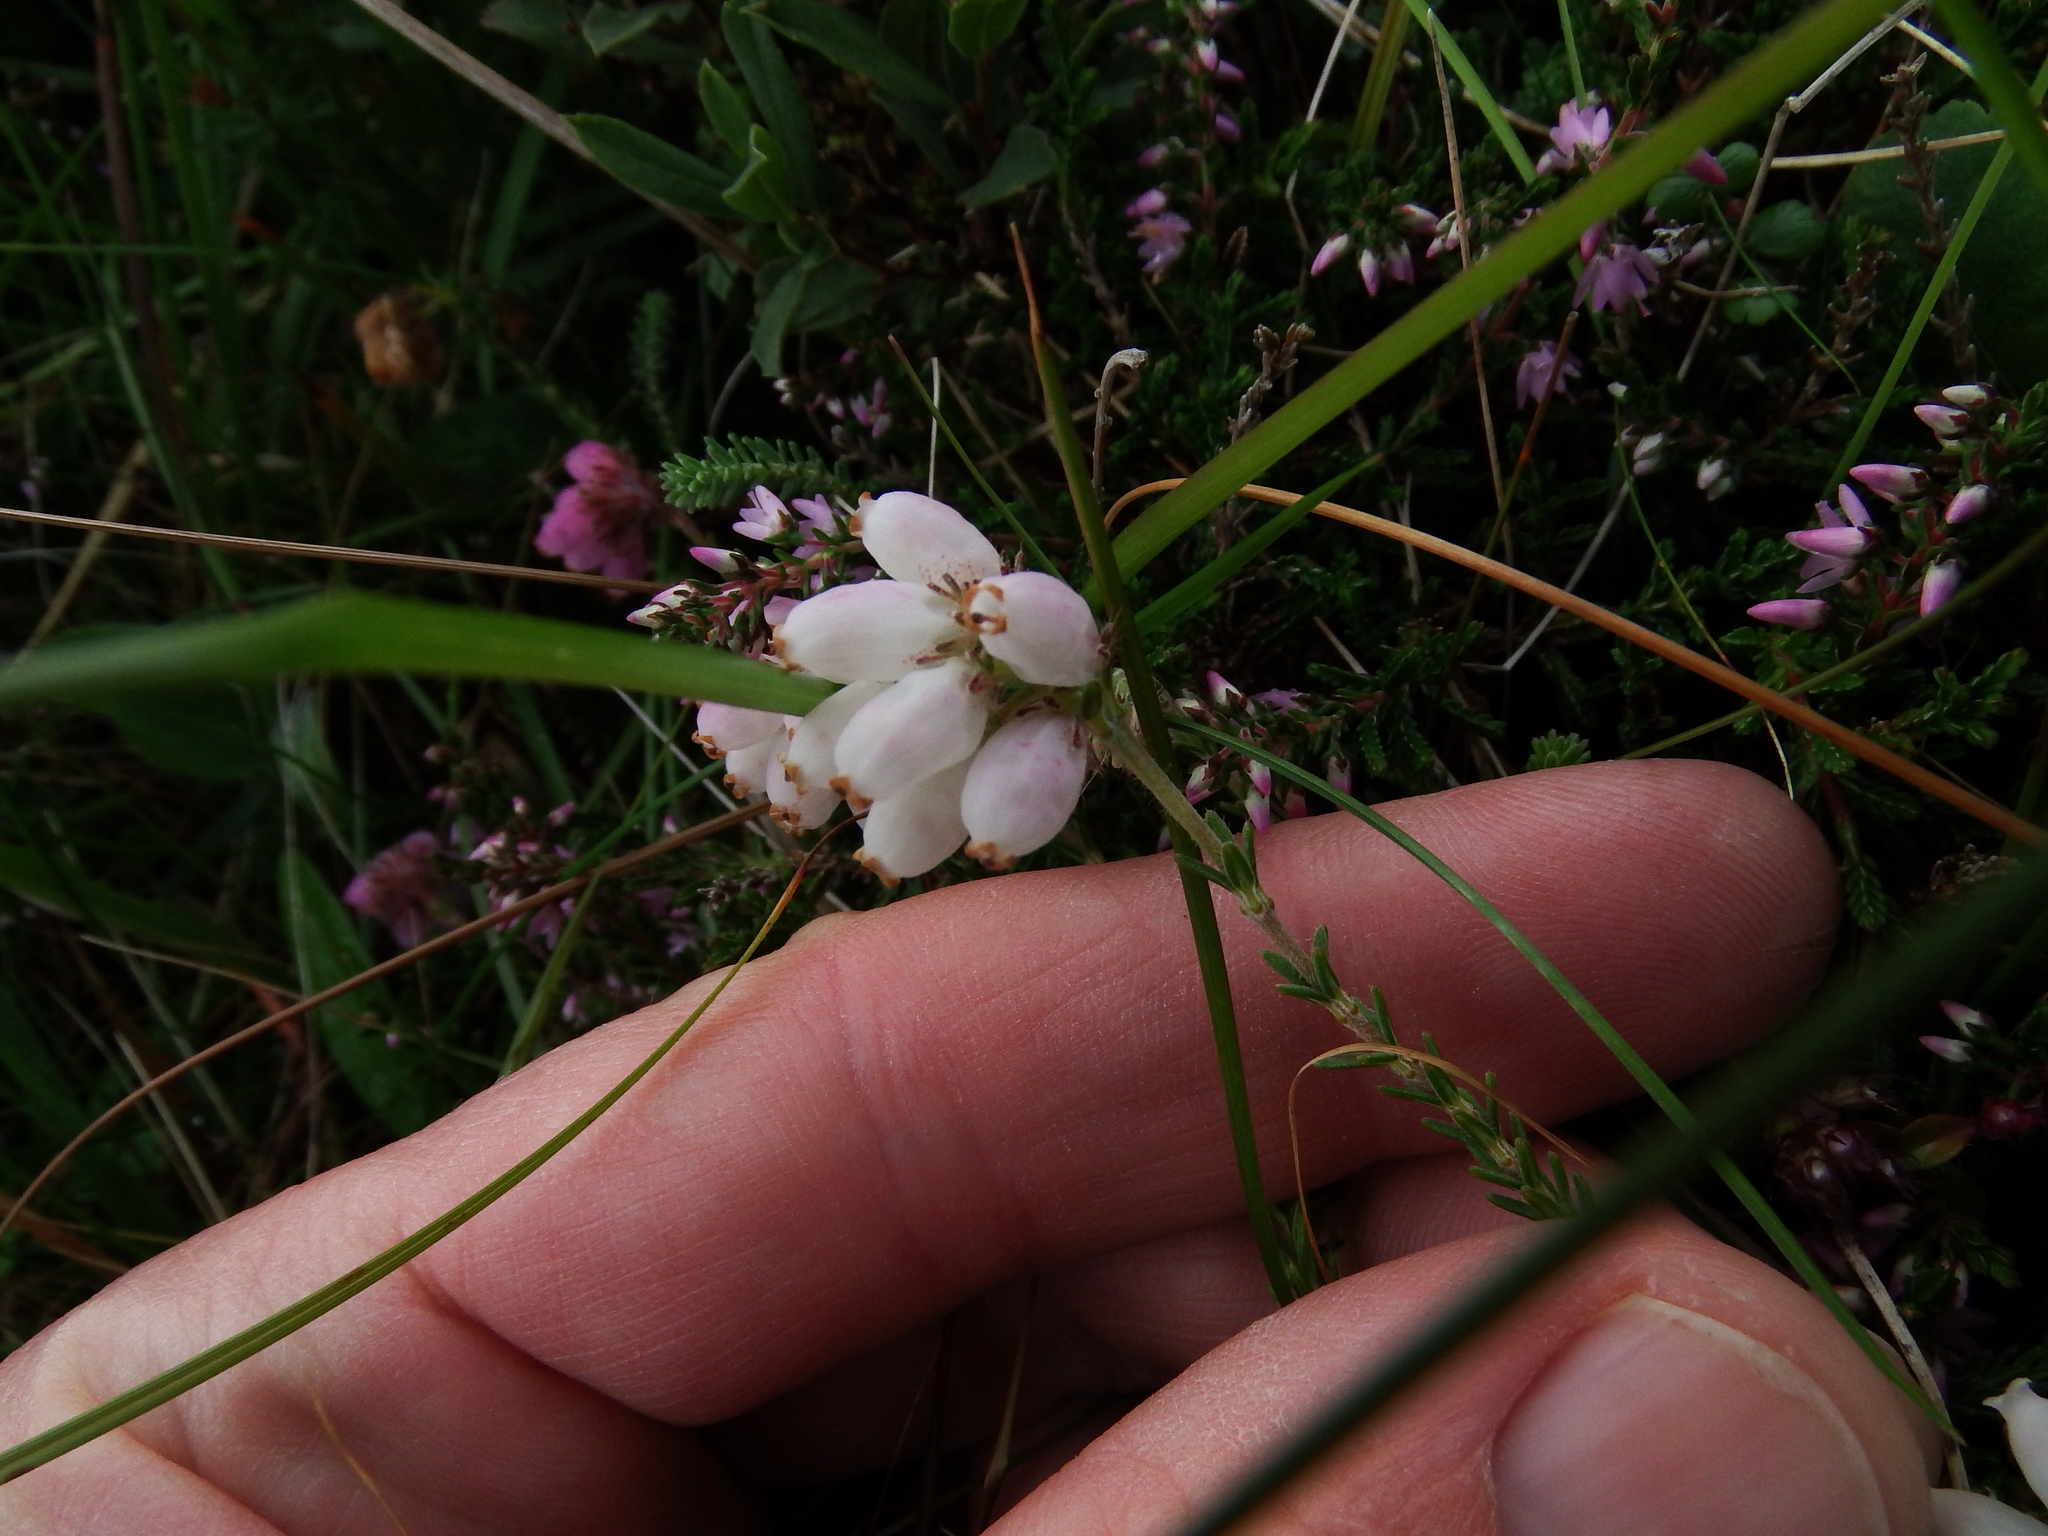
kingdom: Plantae
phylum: Tracheophyta
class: Magnoliopsida
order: Ericales
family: Ericaceae
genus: Erica
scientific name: Erica tetralix
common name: Cross-leaved heath
